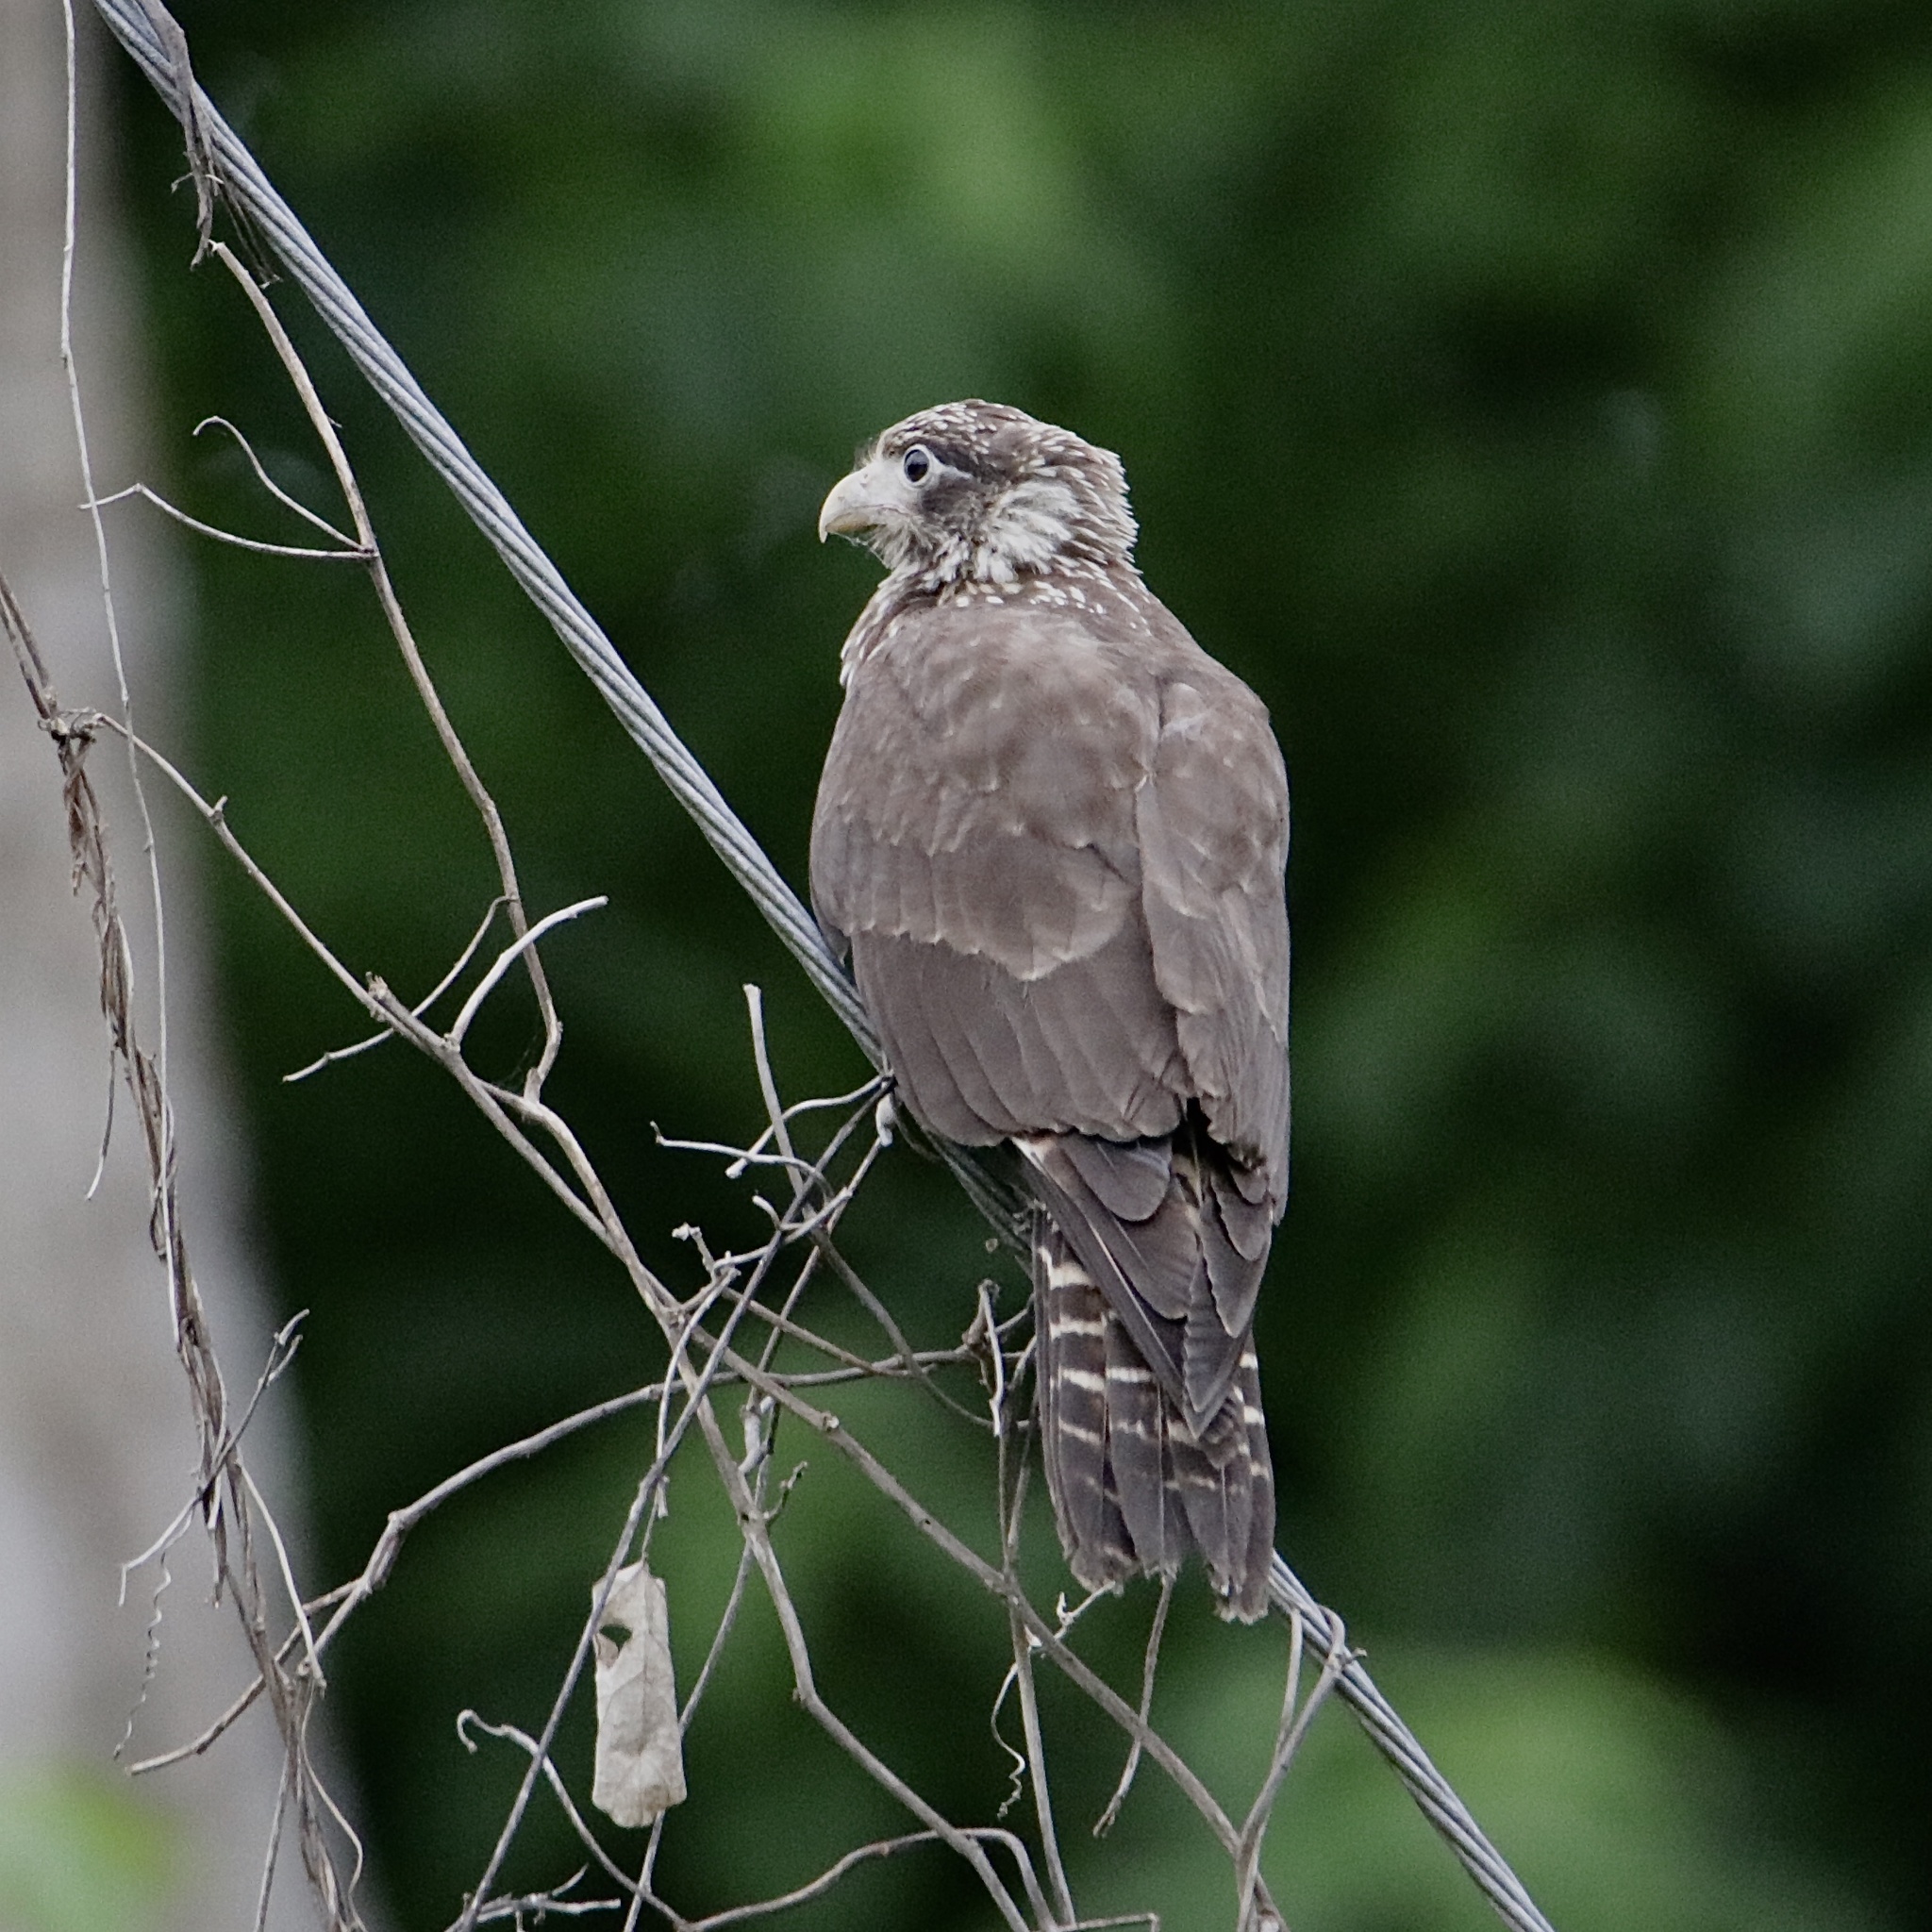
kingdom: Animalia
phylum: Chordata
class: Aves
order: Falconiformes
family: Falconidae
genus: Daptrius
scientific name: Daptrius
